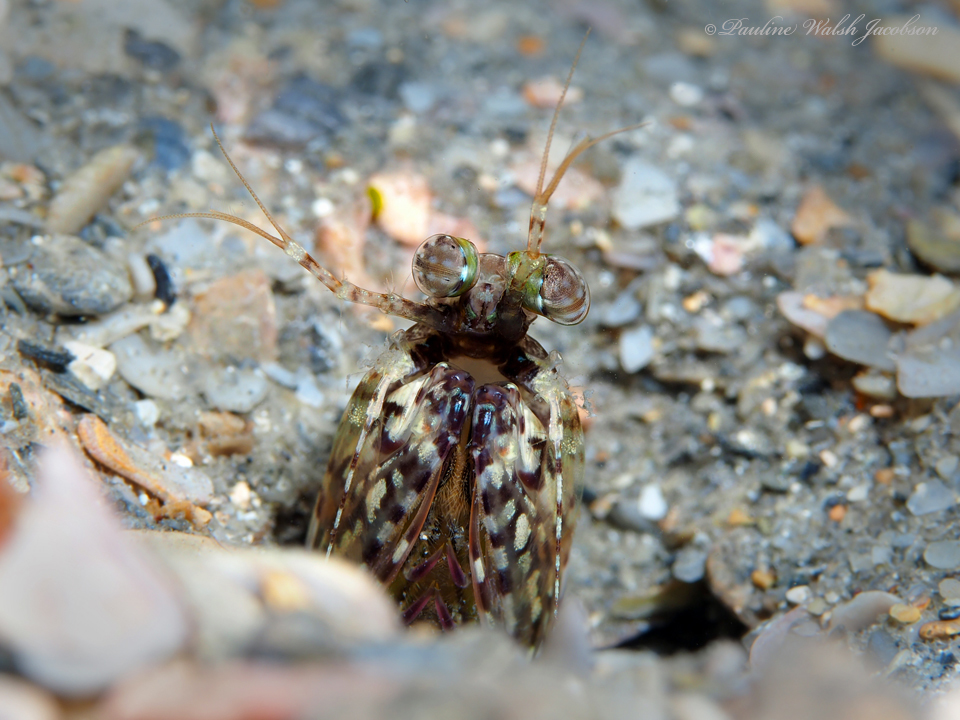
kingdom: Animalia
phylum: Arthropoda
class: Malacostraca
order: Stomatopoda
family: Pseudosquillidae
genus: Pseudosquilla
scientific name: Pseudosquilla ciliata
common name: Ciliated false squilla
